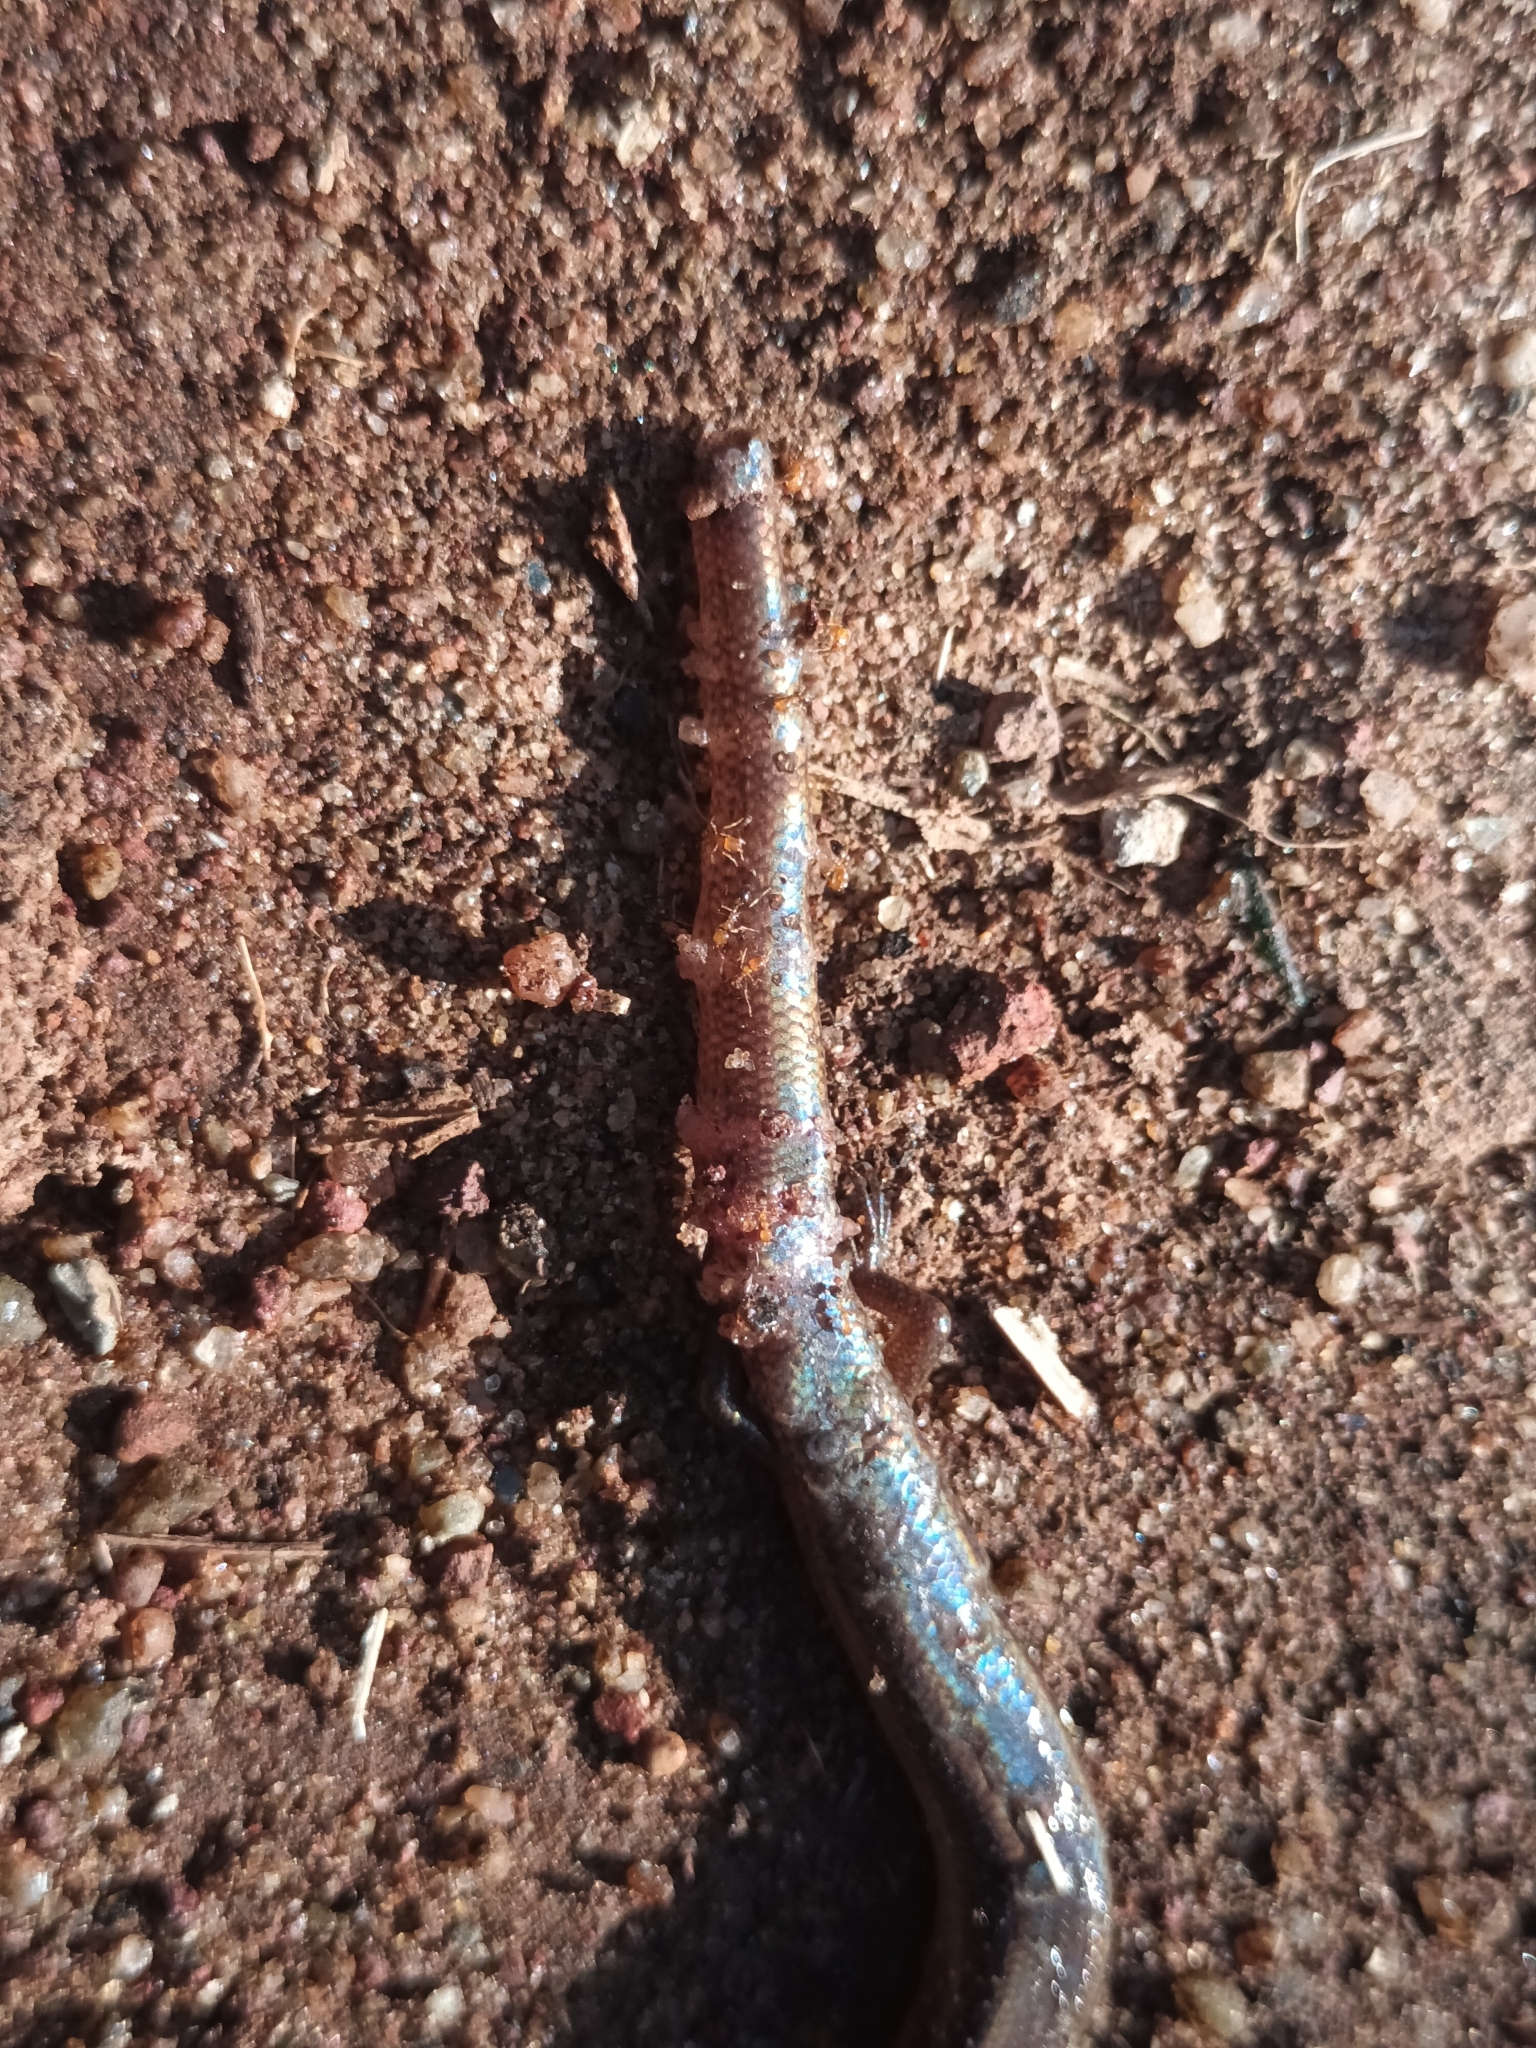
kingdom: Animalia
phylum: Chordata
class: Squamata
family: Scincidae
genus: Riopa
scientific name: Riopa albopunctata
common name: White-spotted supple skink
